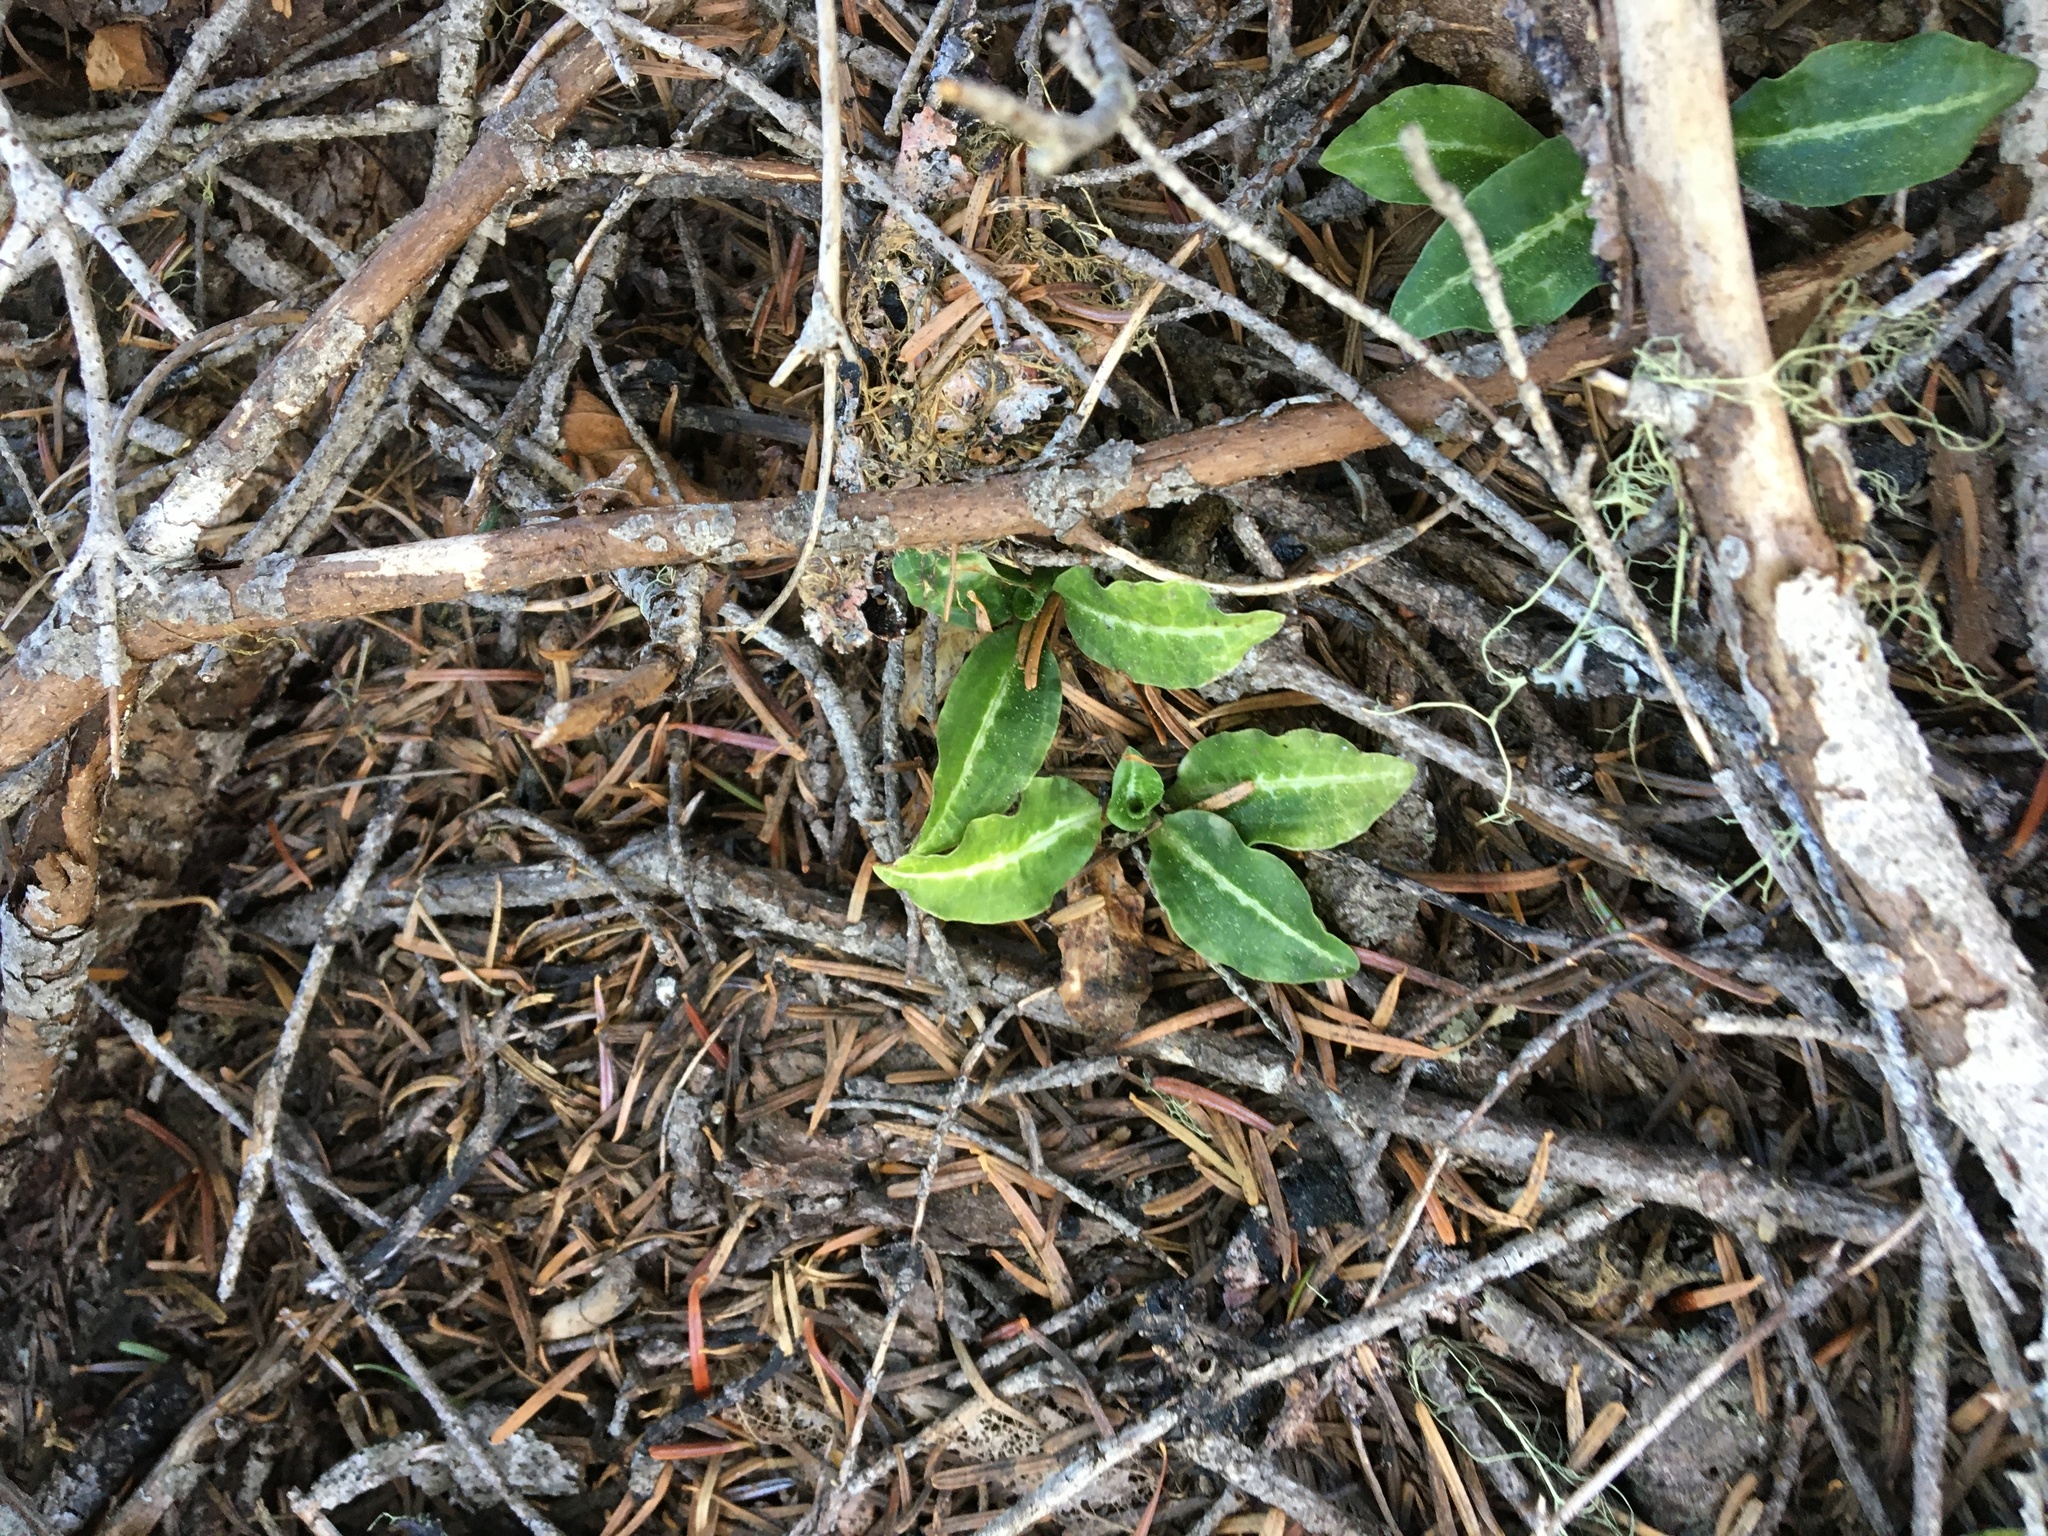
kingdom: Plantae
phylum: Tracheophyta
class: Liliopsida
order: Asparagales
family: Orchidaceae
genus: Goodyera
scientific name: Goodyera oblongifolia
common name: Giant rattlesnake-plantain
